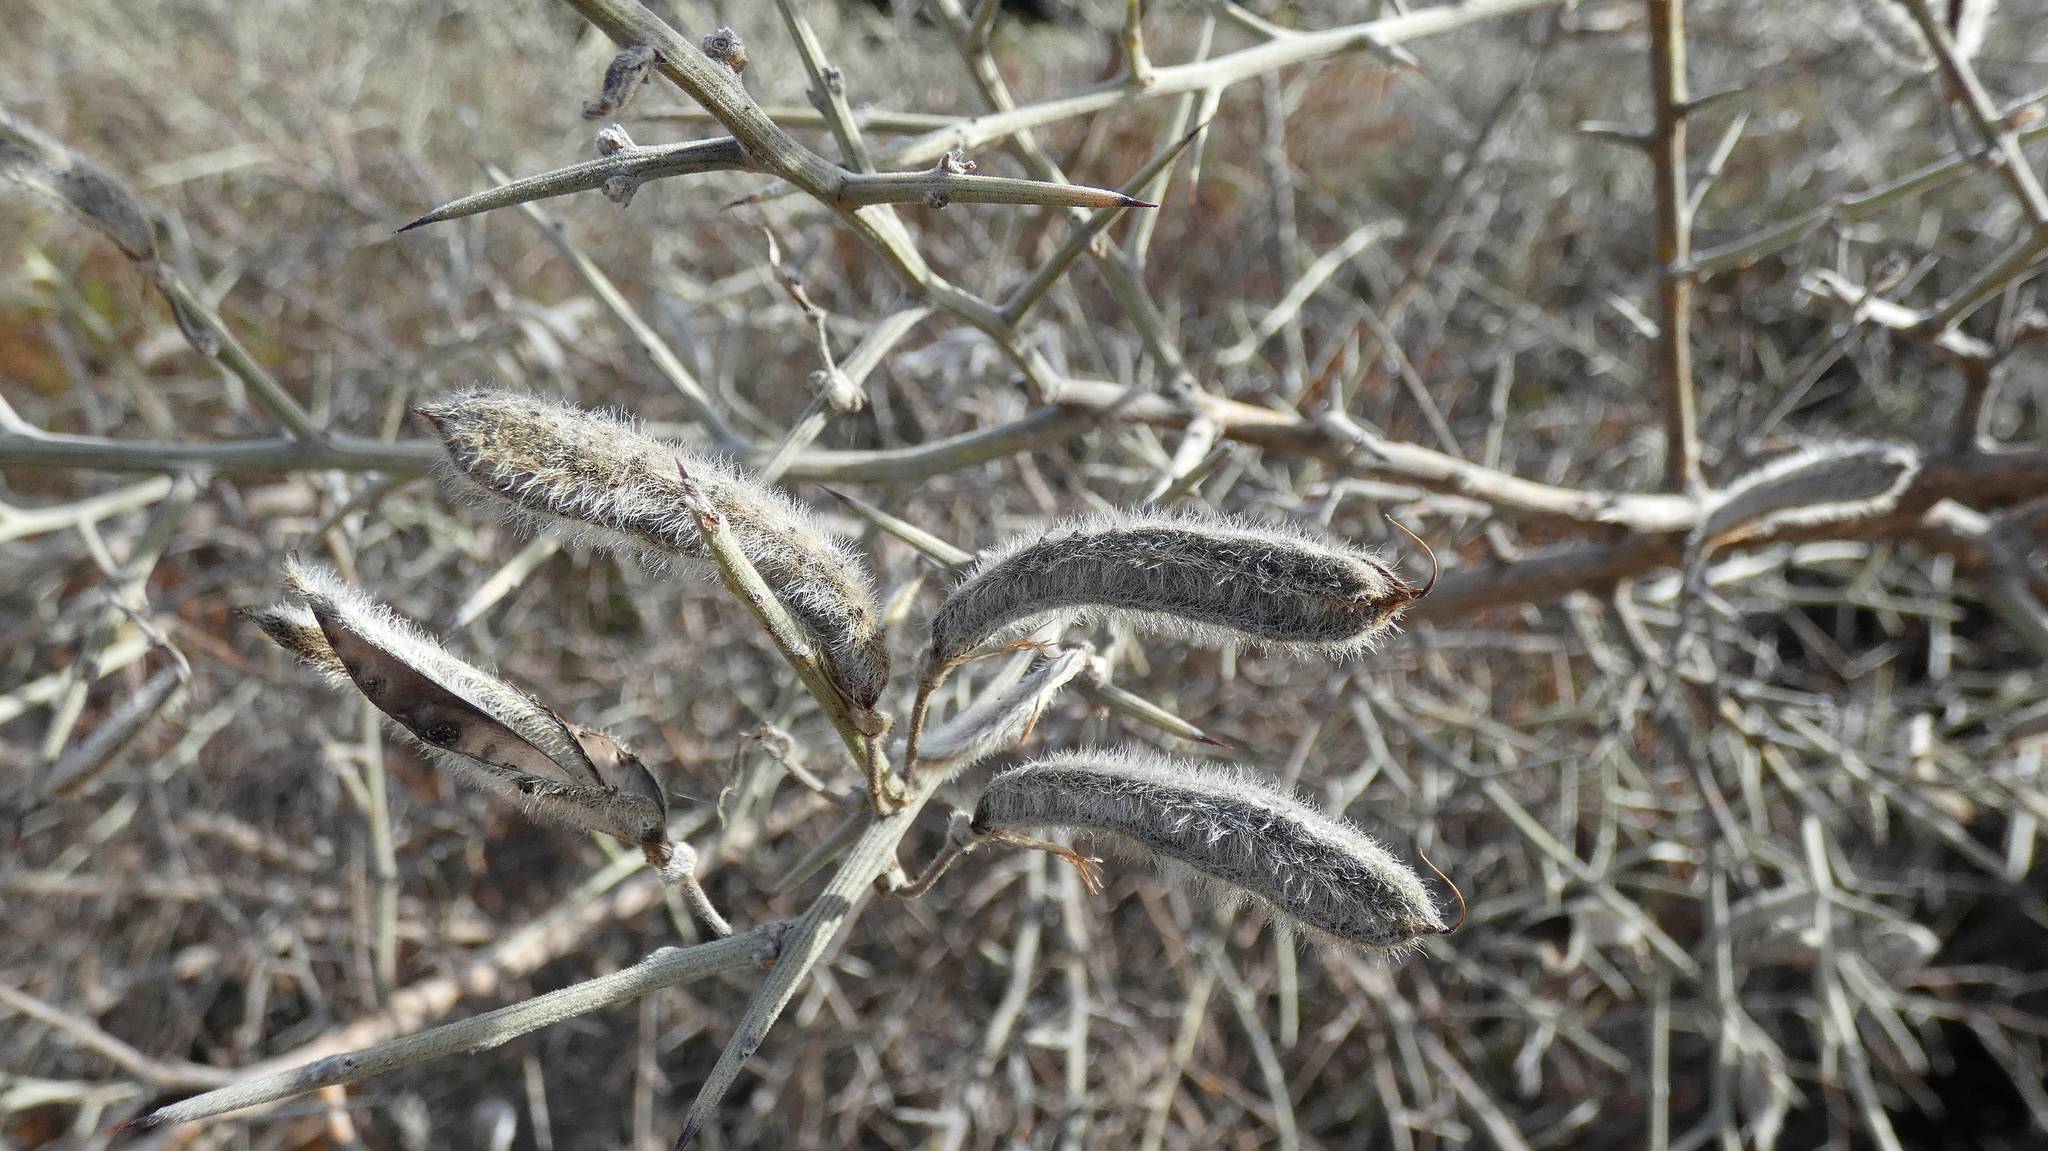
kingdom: Plantae
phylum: Tracheophyta
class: Magnoliopsida
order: Fabales
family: Fabaceae
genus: Calicotome
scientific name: Calicotome villosa
